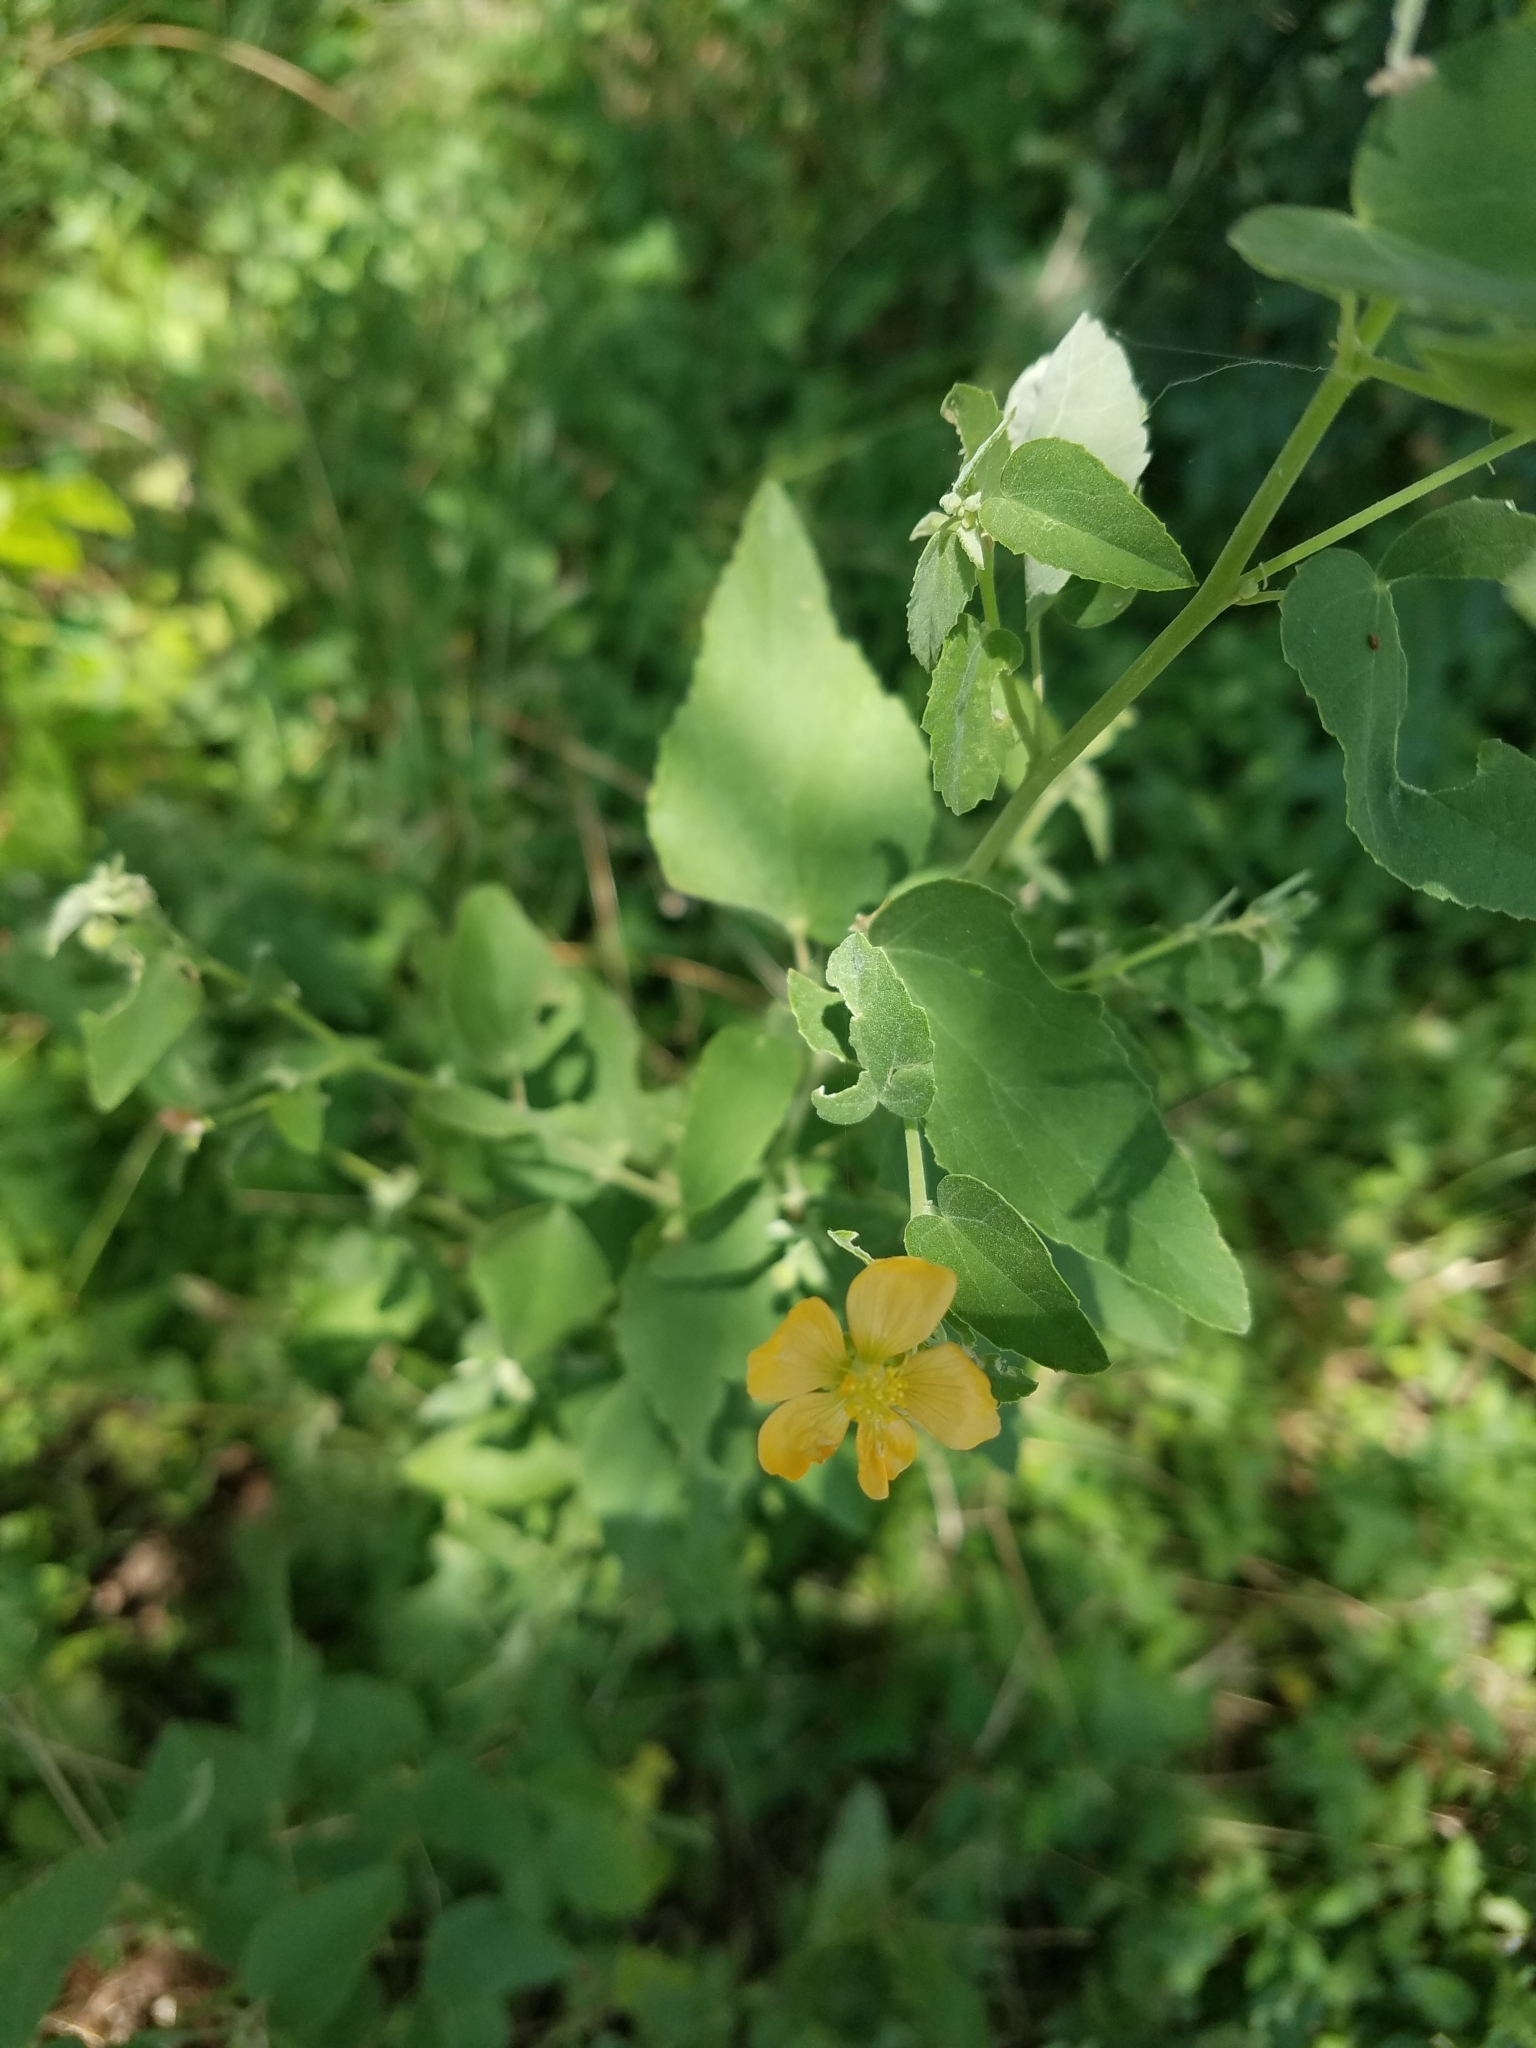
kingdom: Plantae
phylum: Tracheophyta
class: Magnoliopsida
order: Malvales
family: Malvaceae
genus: Abutilon
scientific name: Abutilon fruticosum
